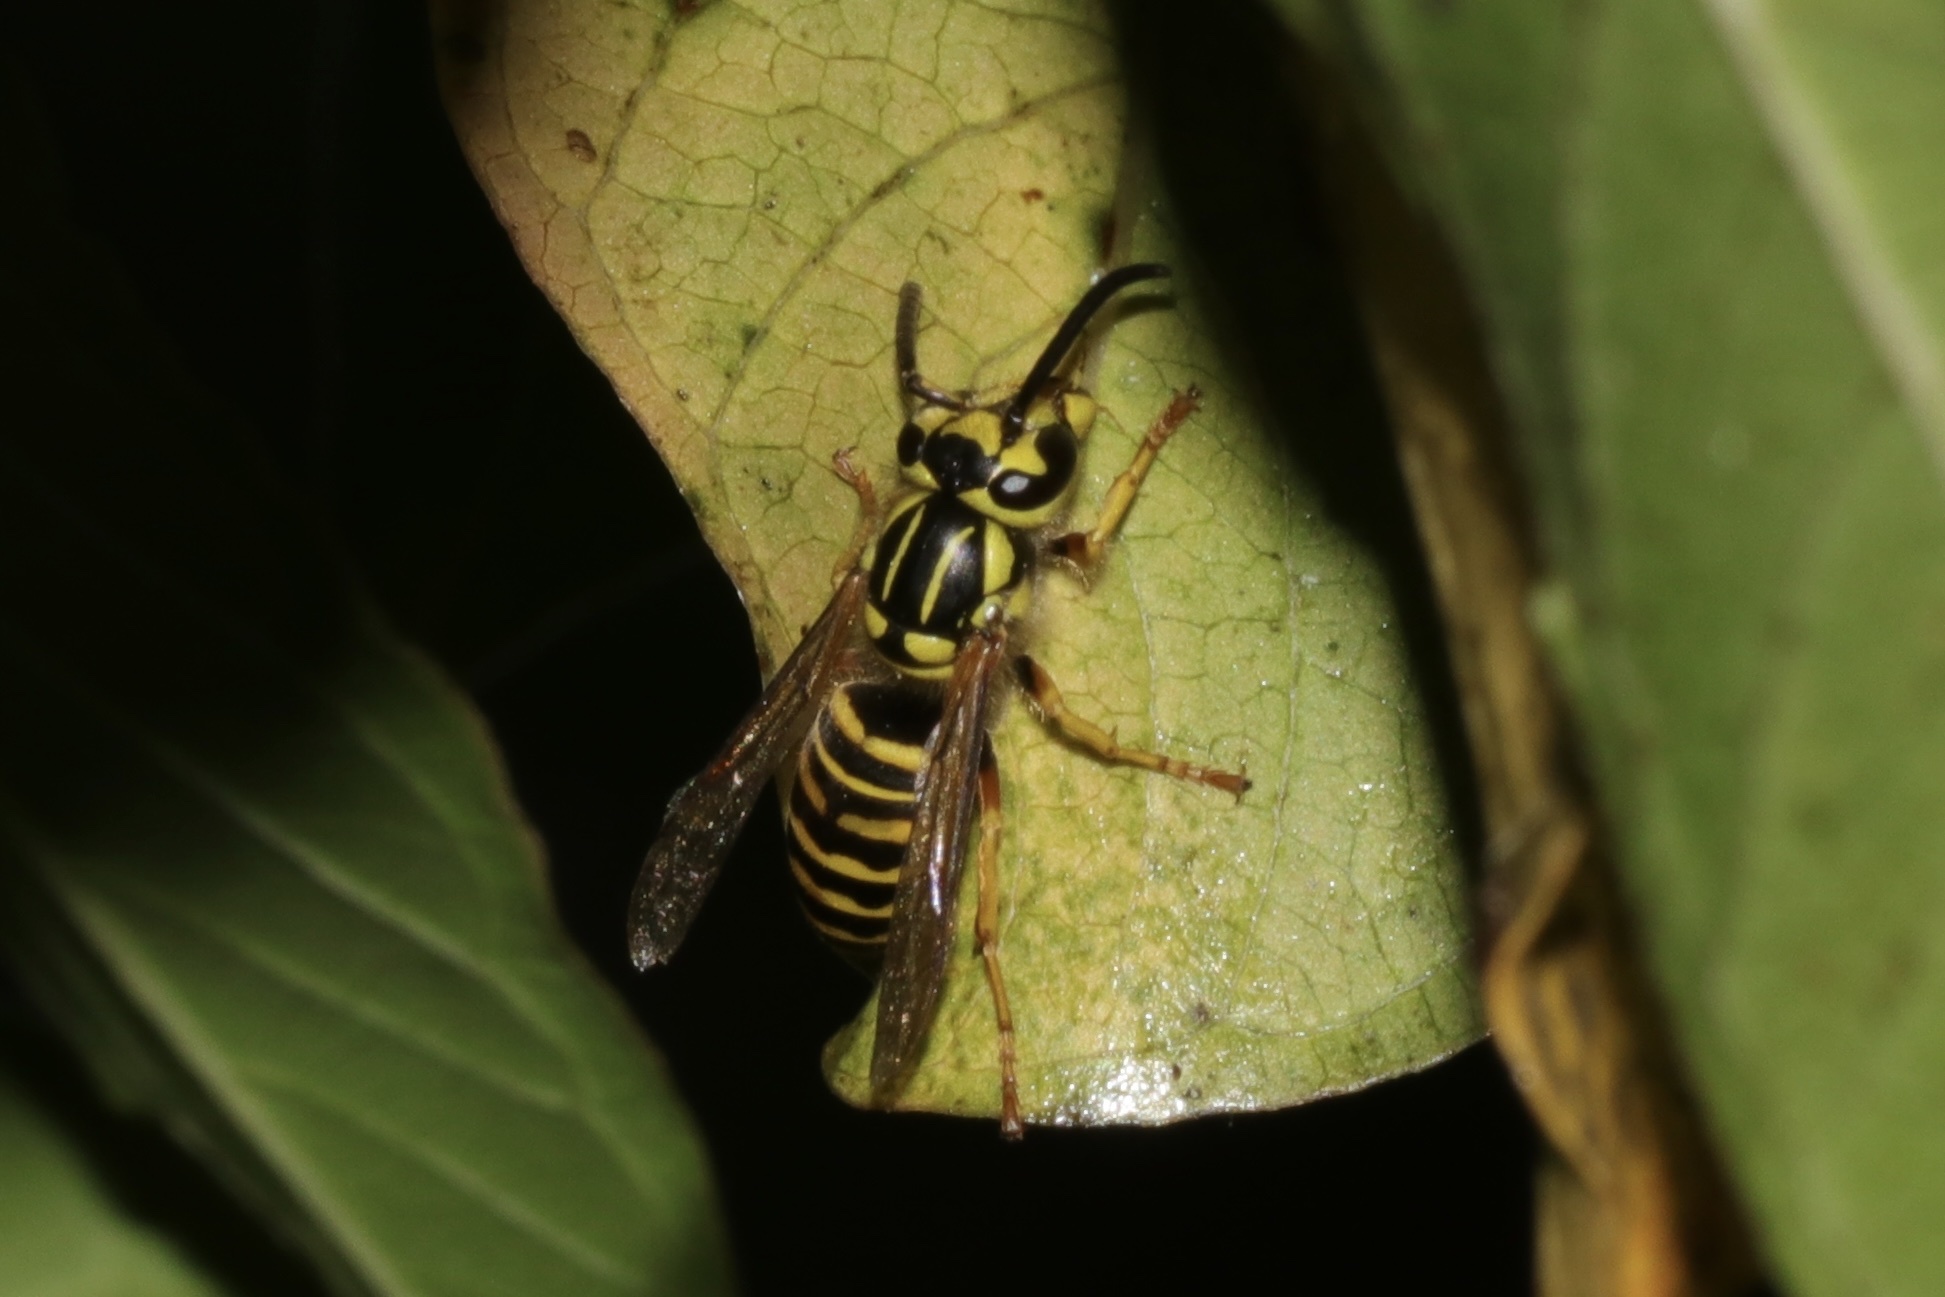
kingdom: Animalia
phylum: Arthropoda
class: Insecta
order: Hymenoptera
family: Vespidae
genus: Vespula
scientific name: Vespula squamosa
